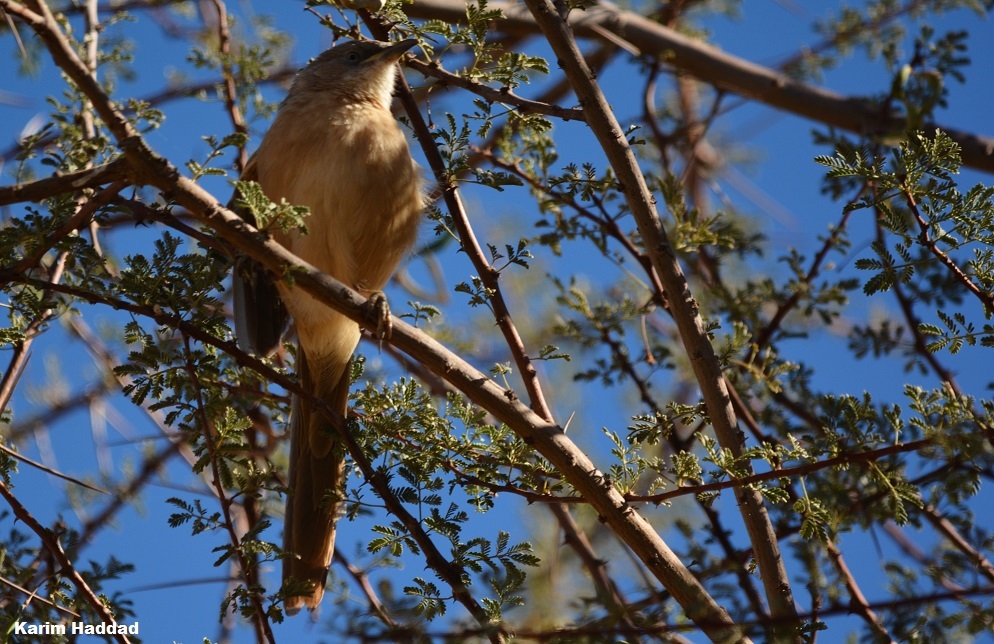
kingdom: Animalia
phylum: Chordata
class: Aves
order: Passeriformes
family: Leiothrichidae
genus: Turdoides
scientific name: Turdoides fulva
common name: Fulvous babbler
